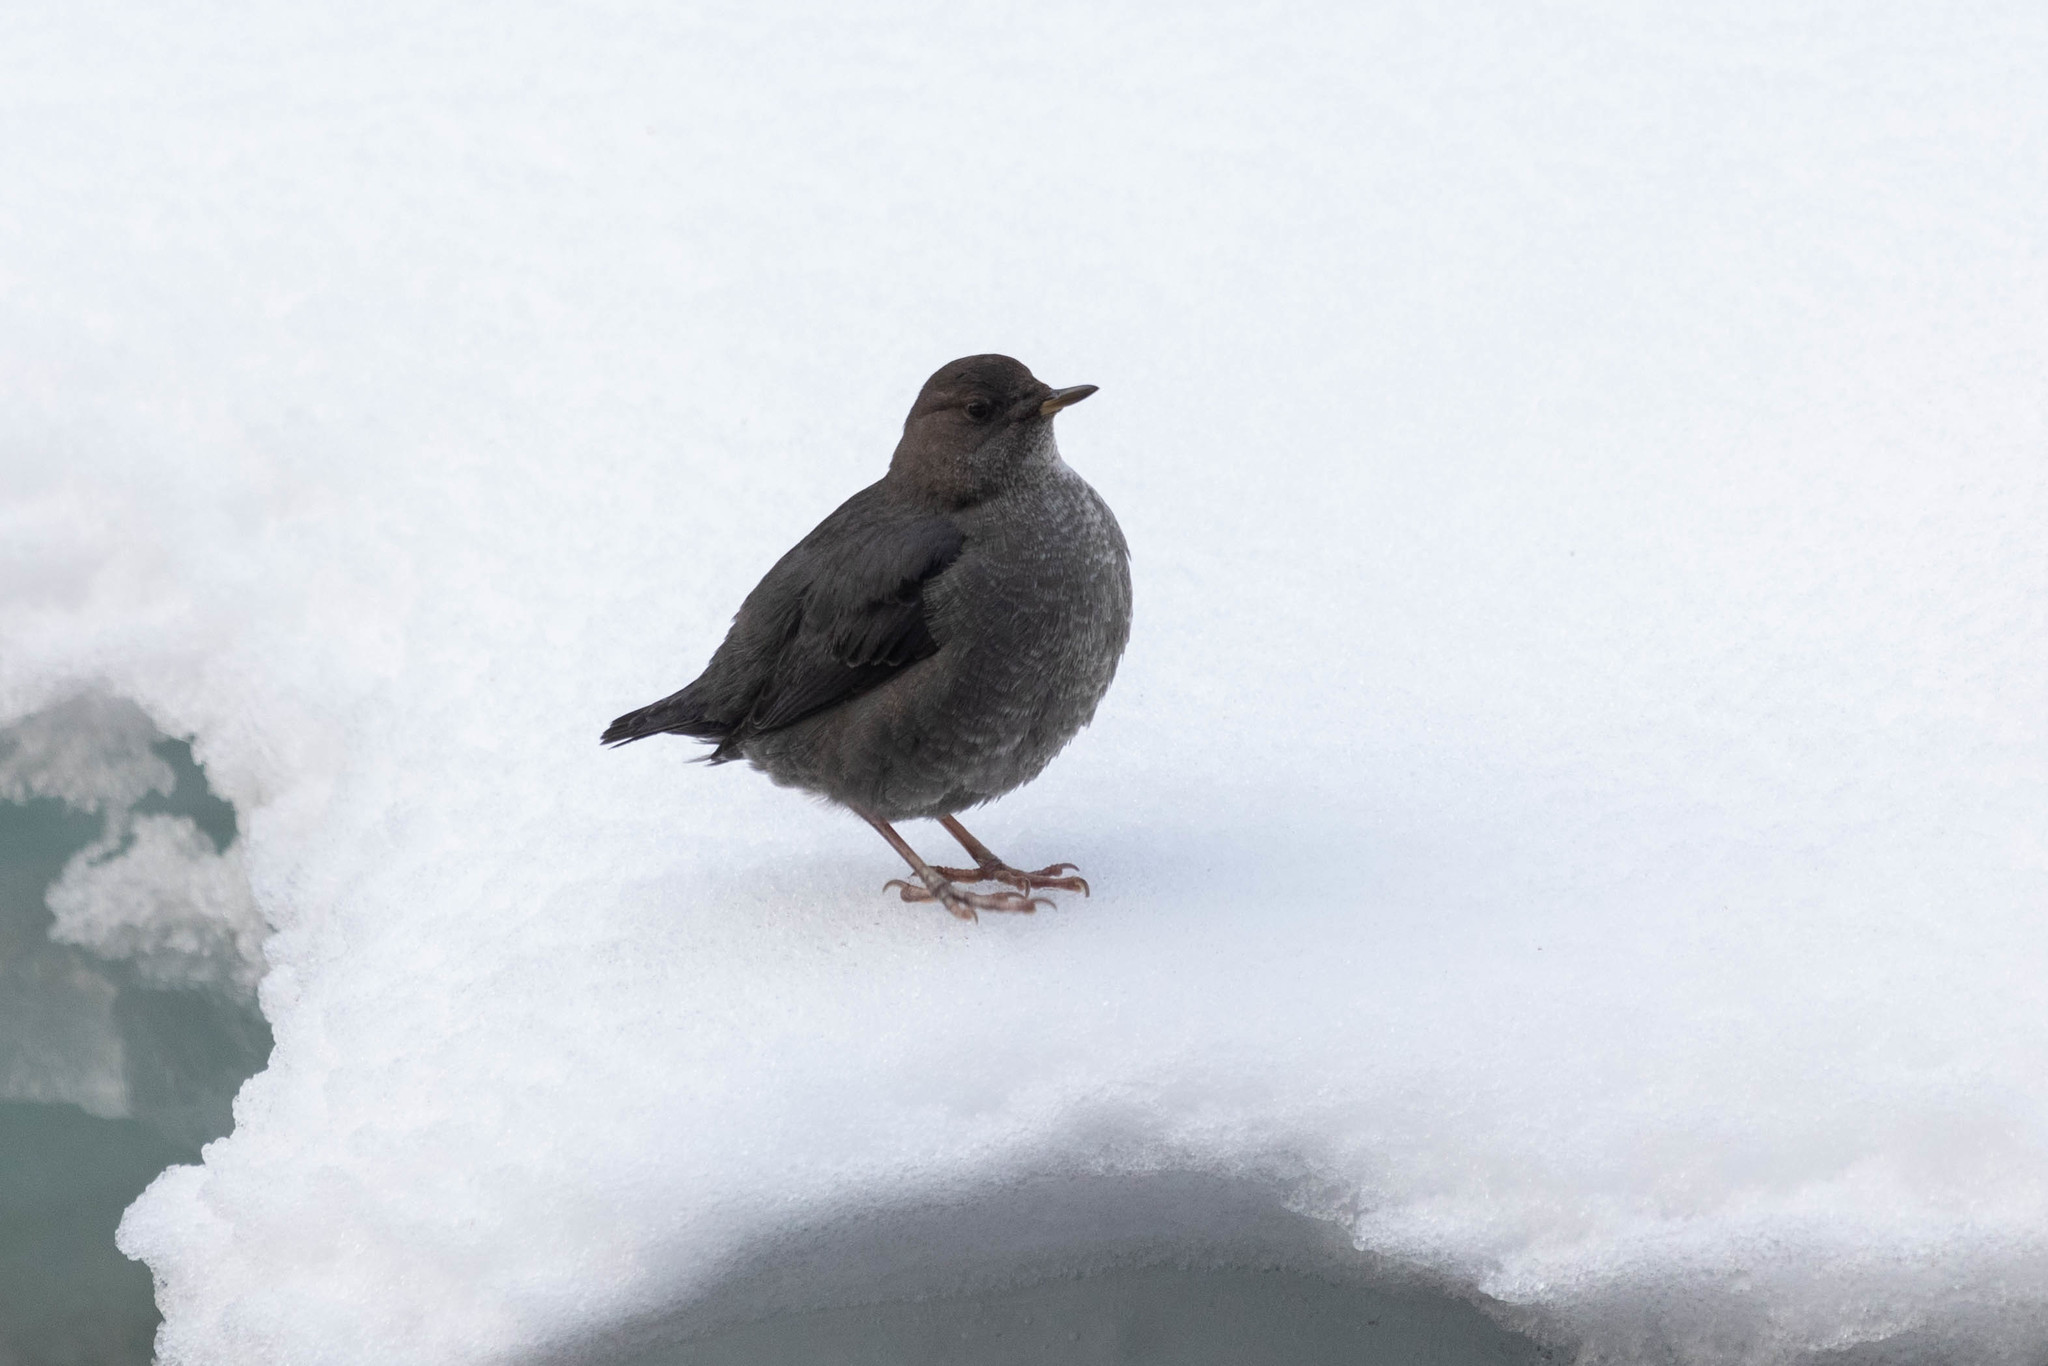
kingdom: Animalia
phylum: Chordata
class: Aves
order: Passeriformes
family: Cinclidae
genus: Cinclus
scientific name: Cinclus mexicanus
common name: American dipper
